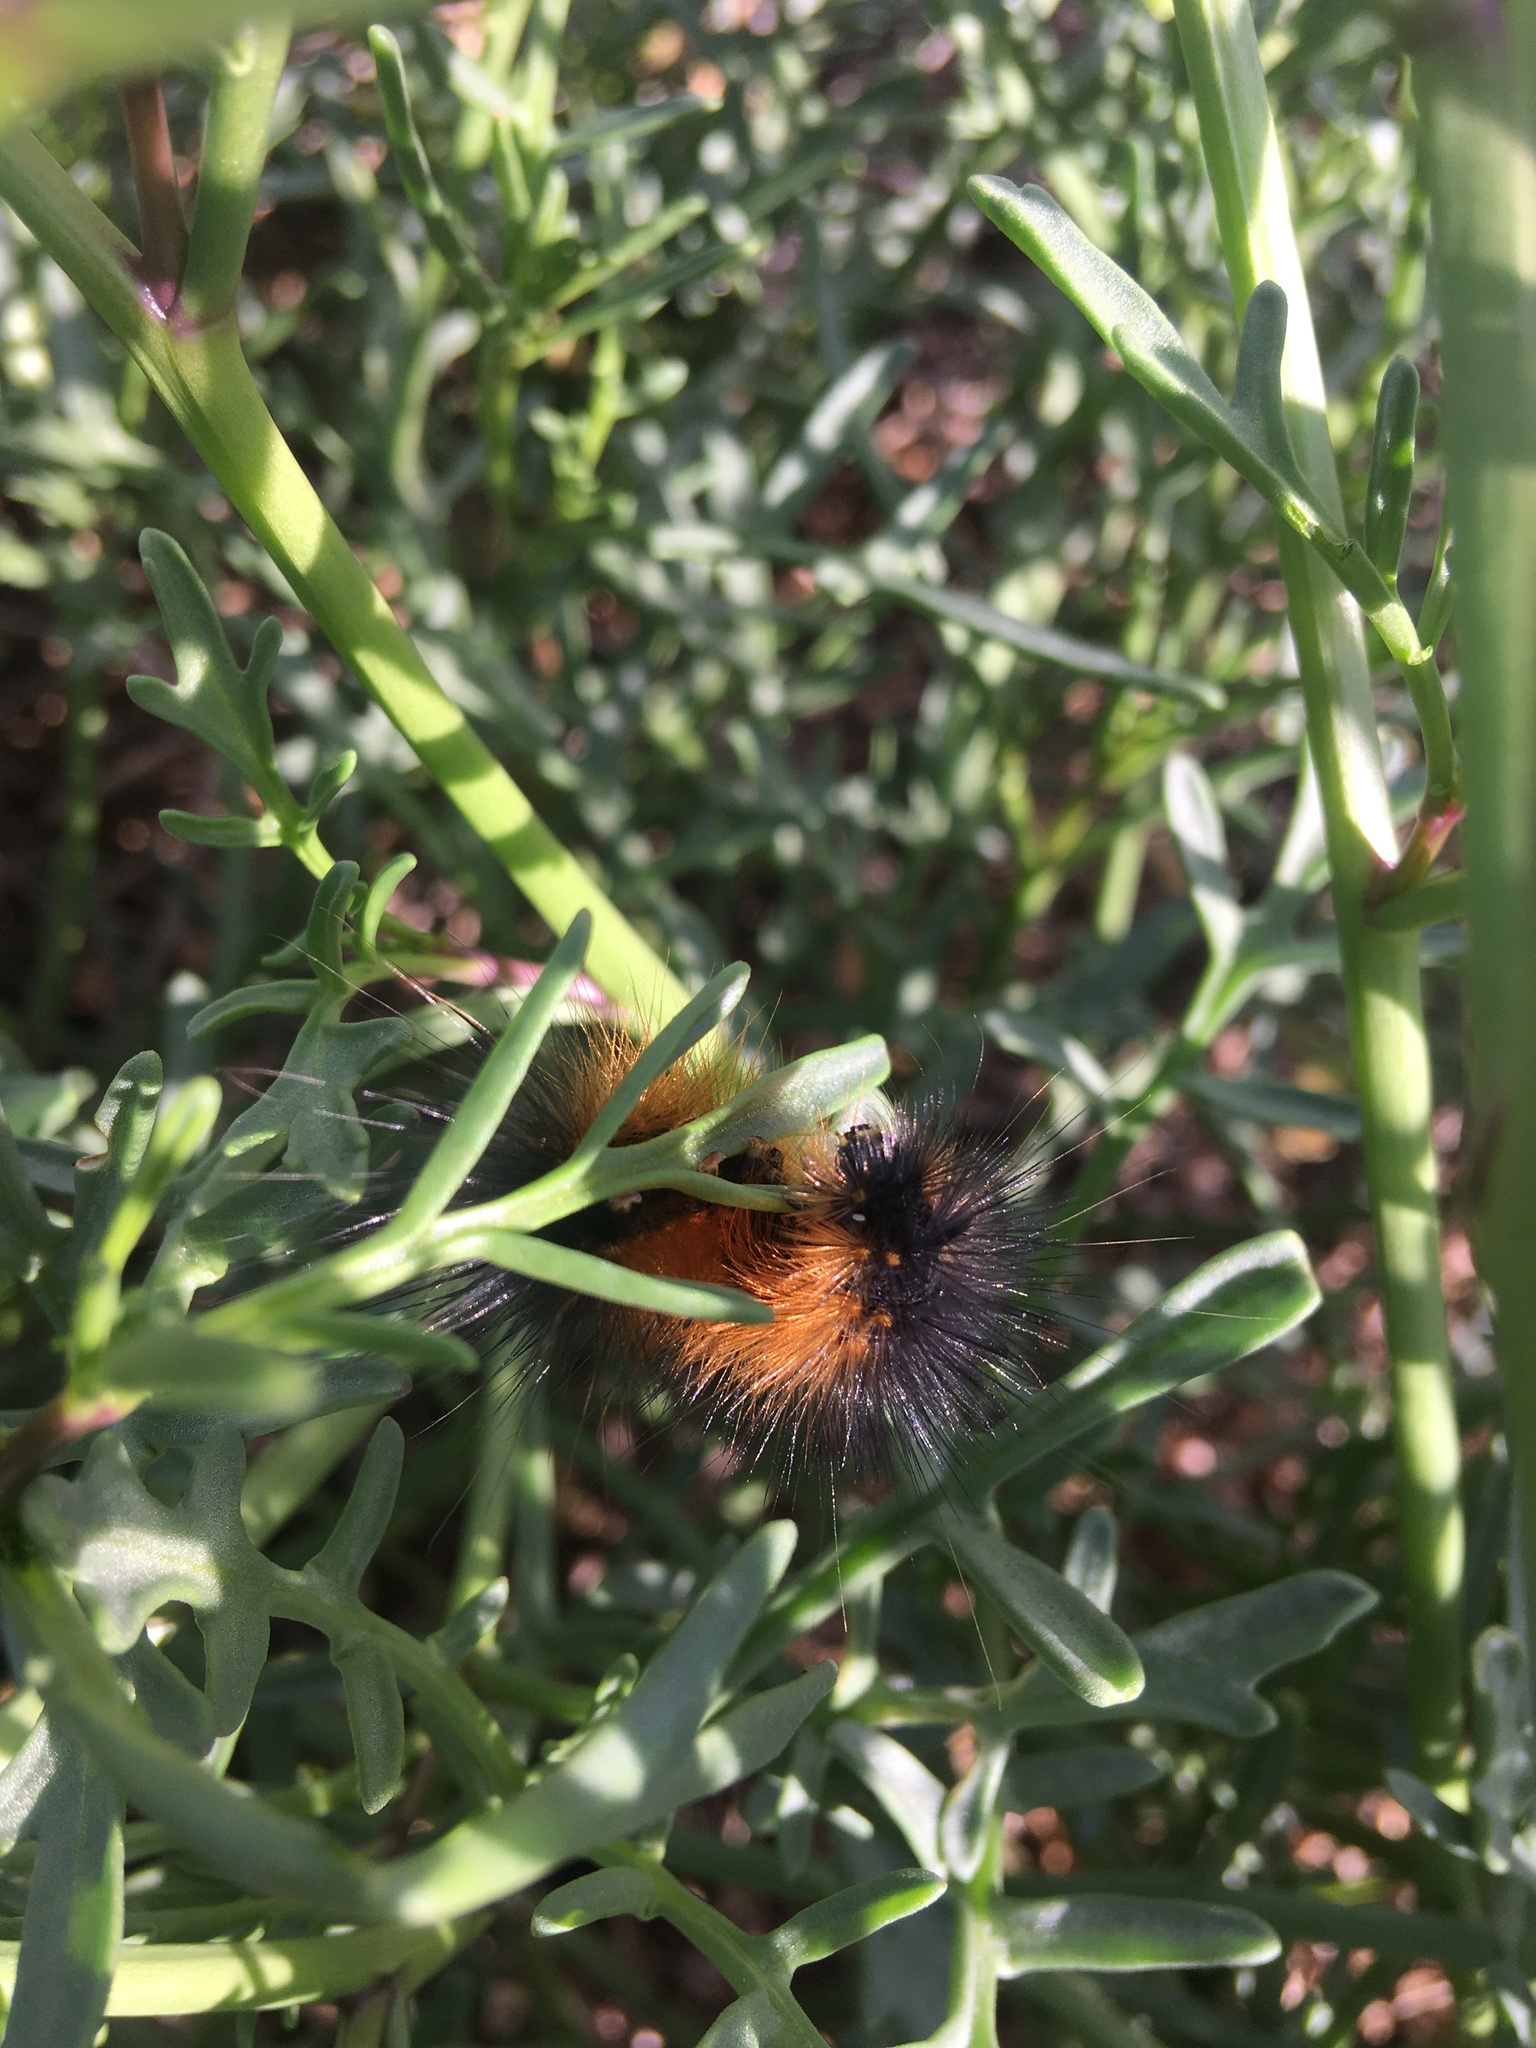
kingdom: Animalia
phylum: Arthropoda
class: Insecta
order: Lepidoptera
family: Erebidae
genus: Estigmene
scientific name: Estigmene acrea
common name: Salt marsh moth
